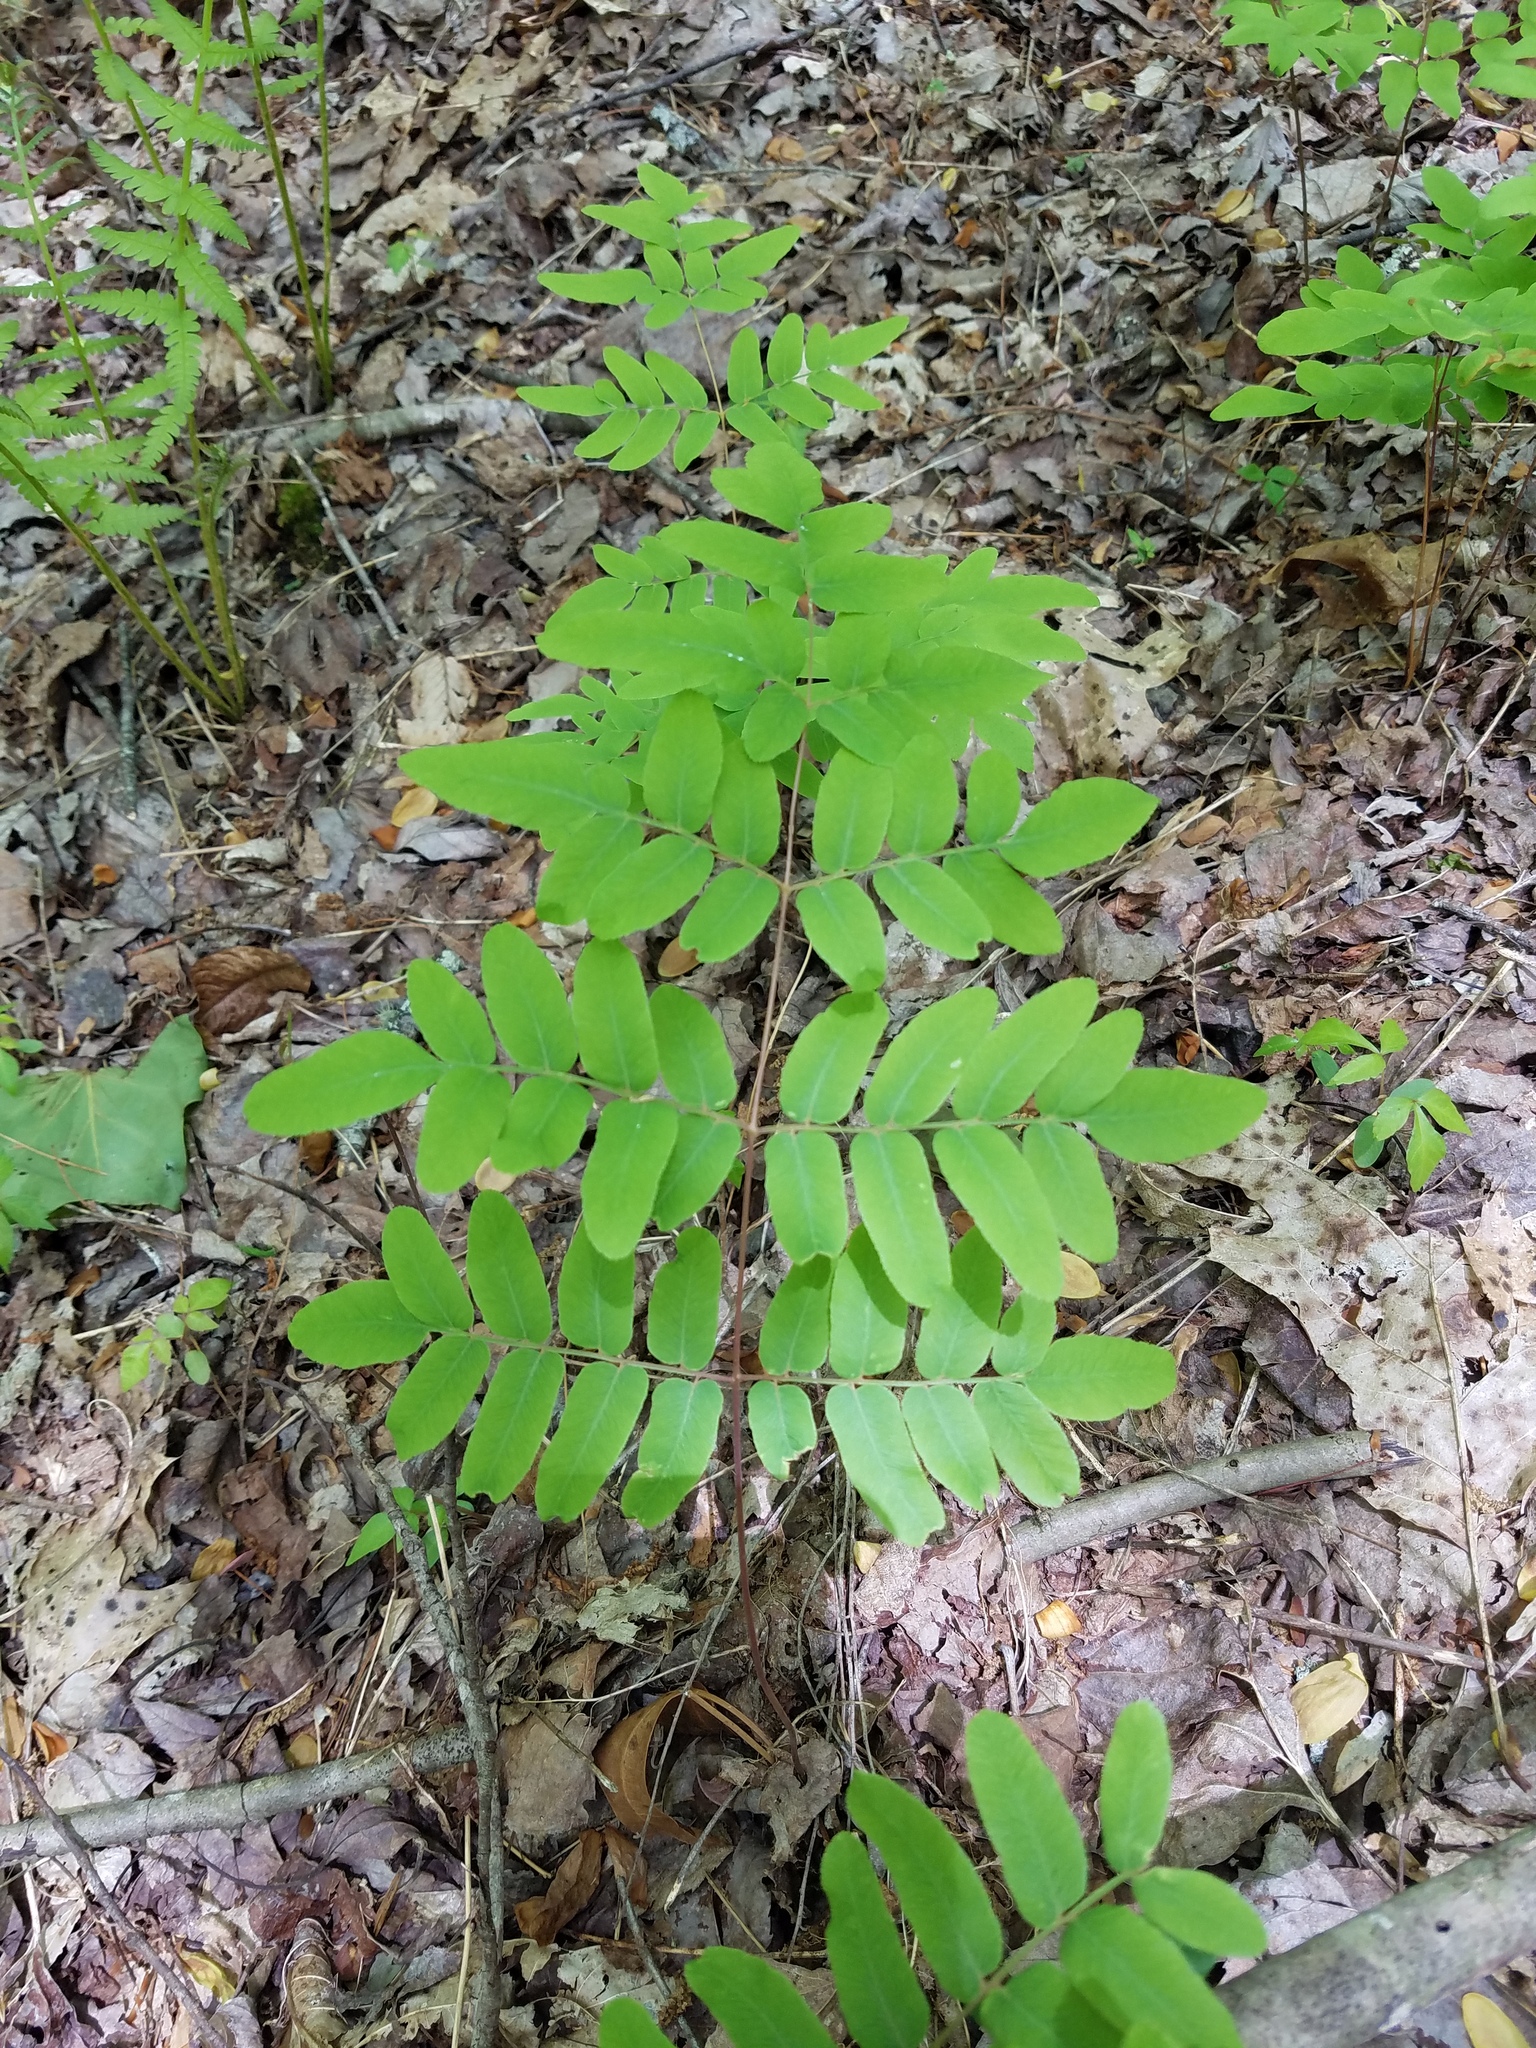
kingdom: Plantae
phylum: Tracheophyta
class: Polypodiopsida
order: Osmundales
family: Osmundaceae
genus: Osmunda
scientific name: Osmunda spectabilis
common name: American royal fern
